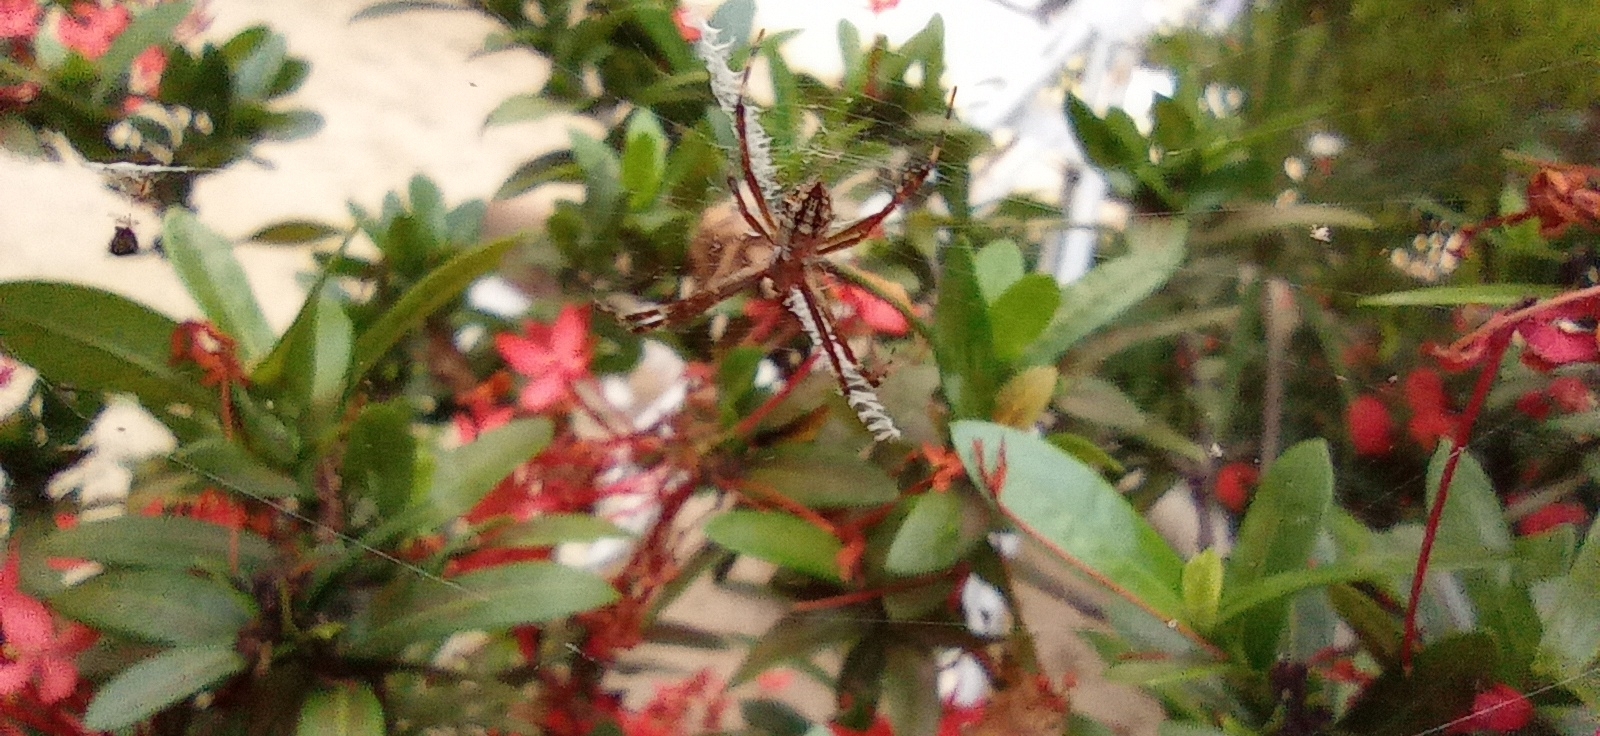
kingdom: Animalia
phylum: Arthropoda
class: Arachnida
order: Araneae
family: Araneidae
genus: Argiope
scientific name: Argiope argentata
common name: Orb weavers
